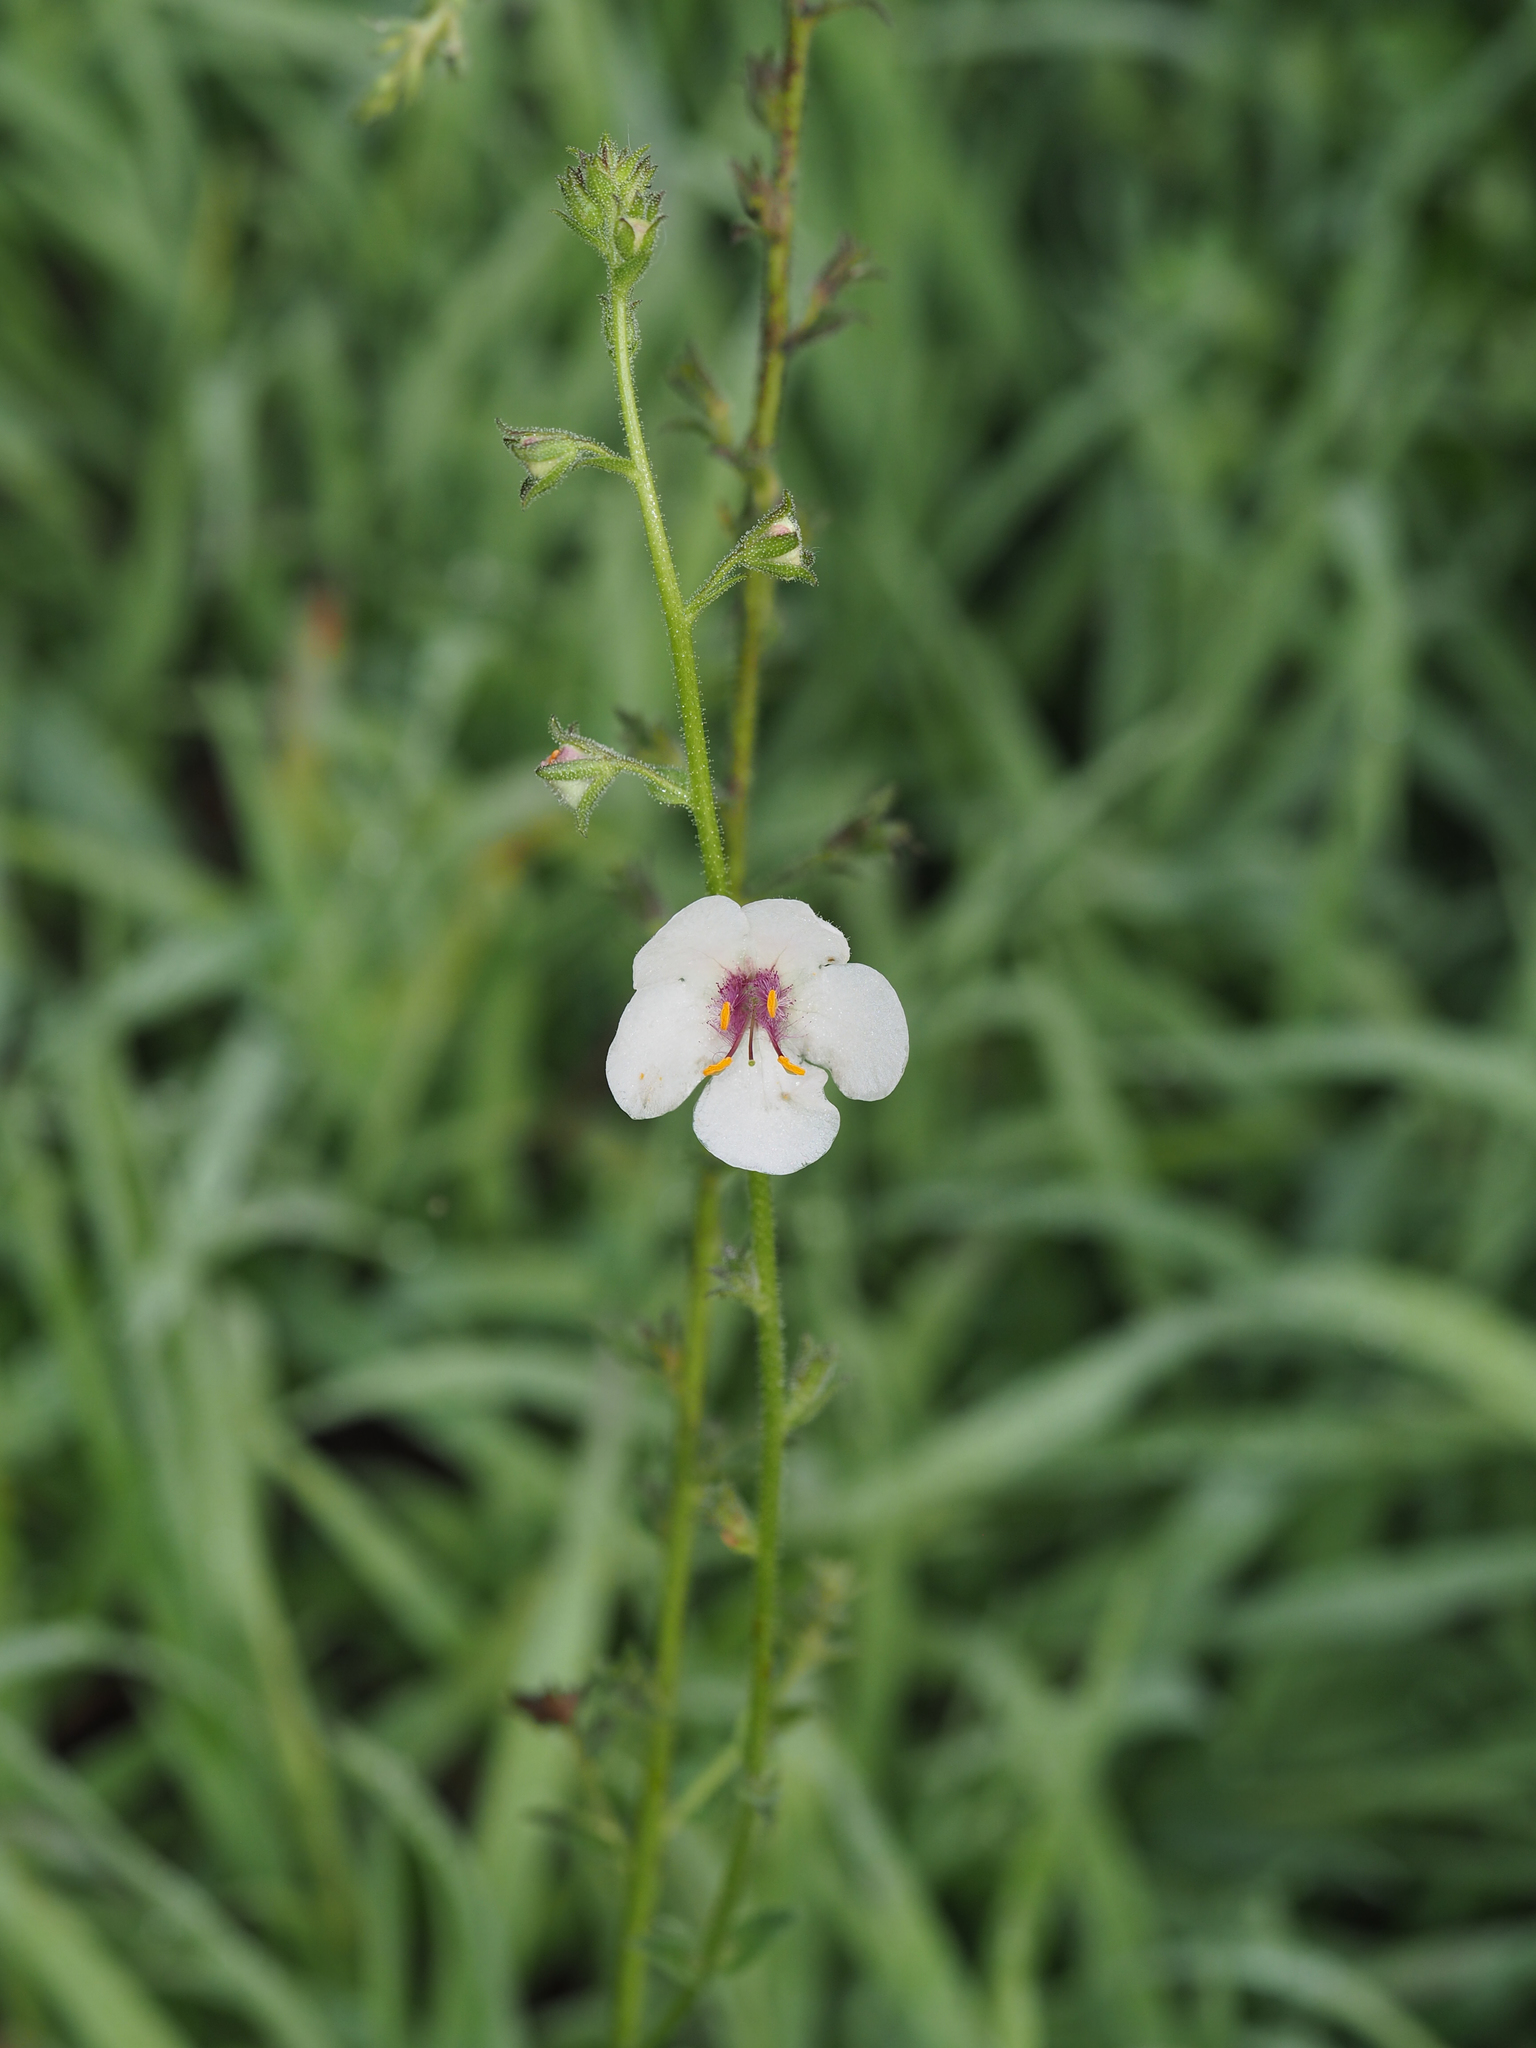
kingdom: Plantae
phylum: Tracheophyta
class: Magnoliopsida
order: Lamiales
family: Scrophulariaceae
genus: Verbascum
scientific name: Verbascum blattaria
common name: Moth mullein
